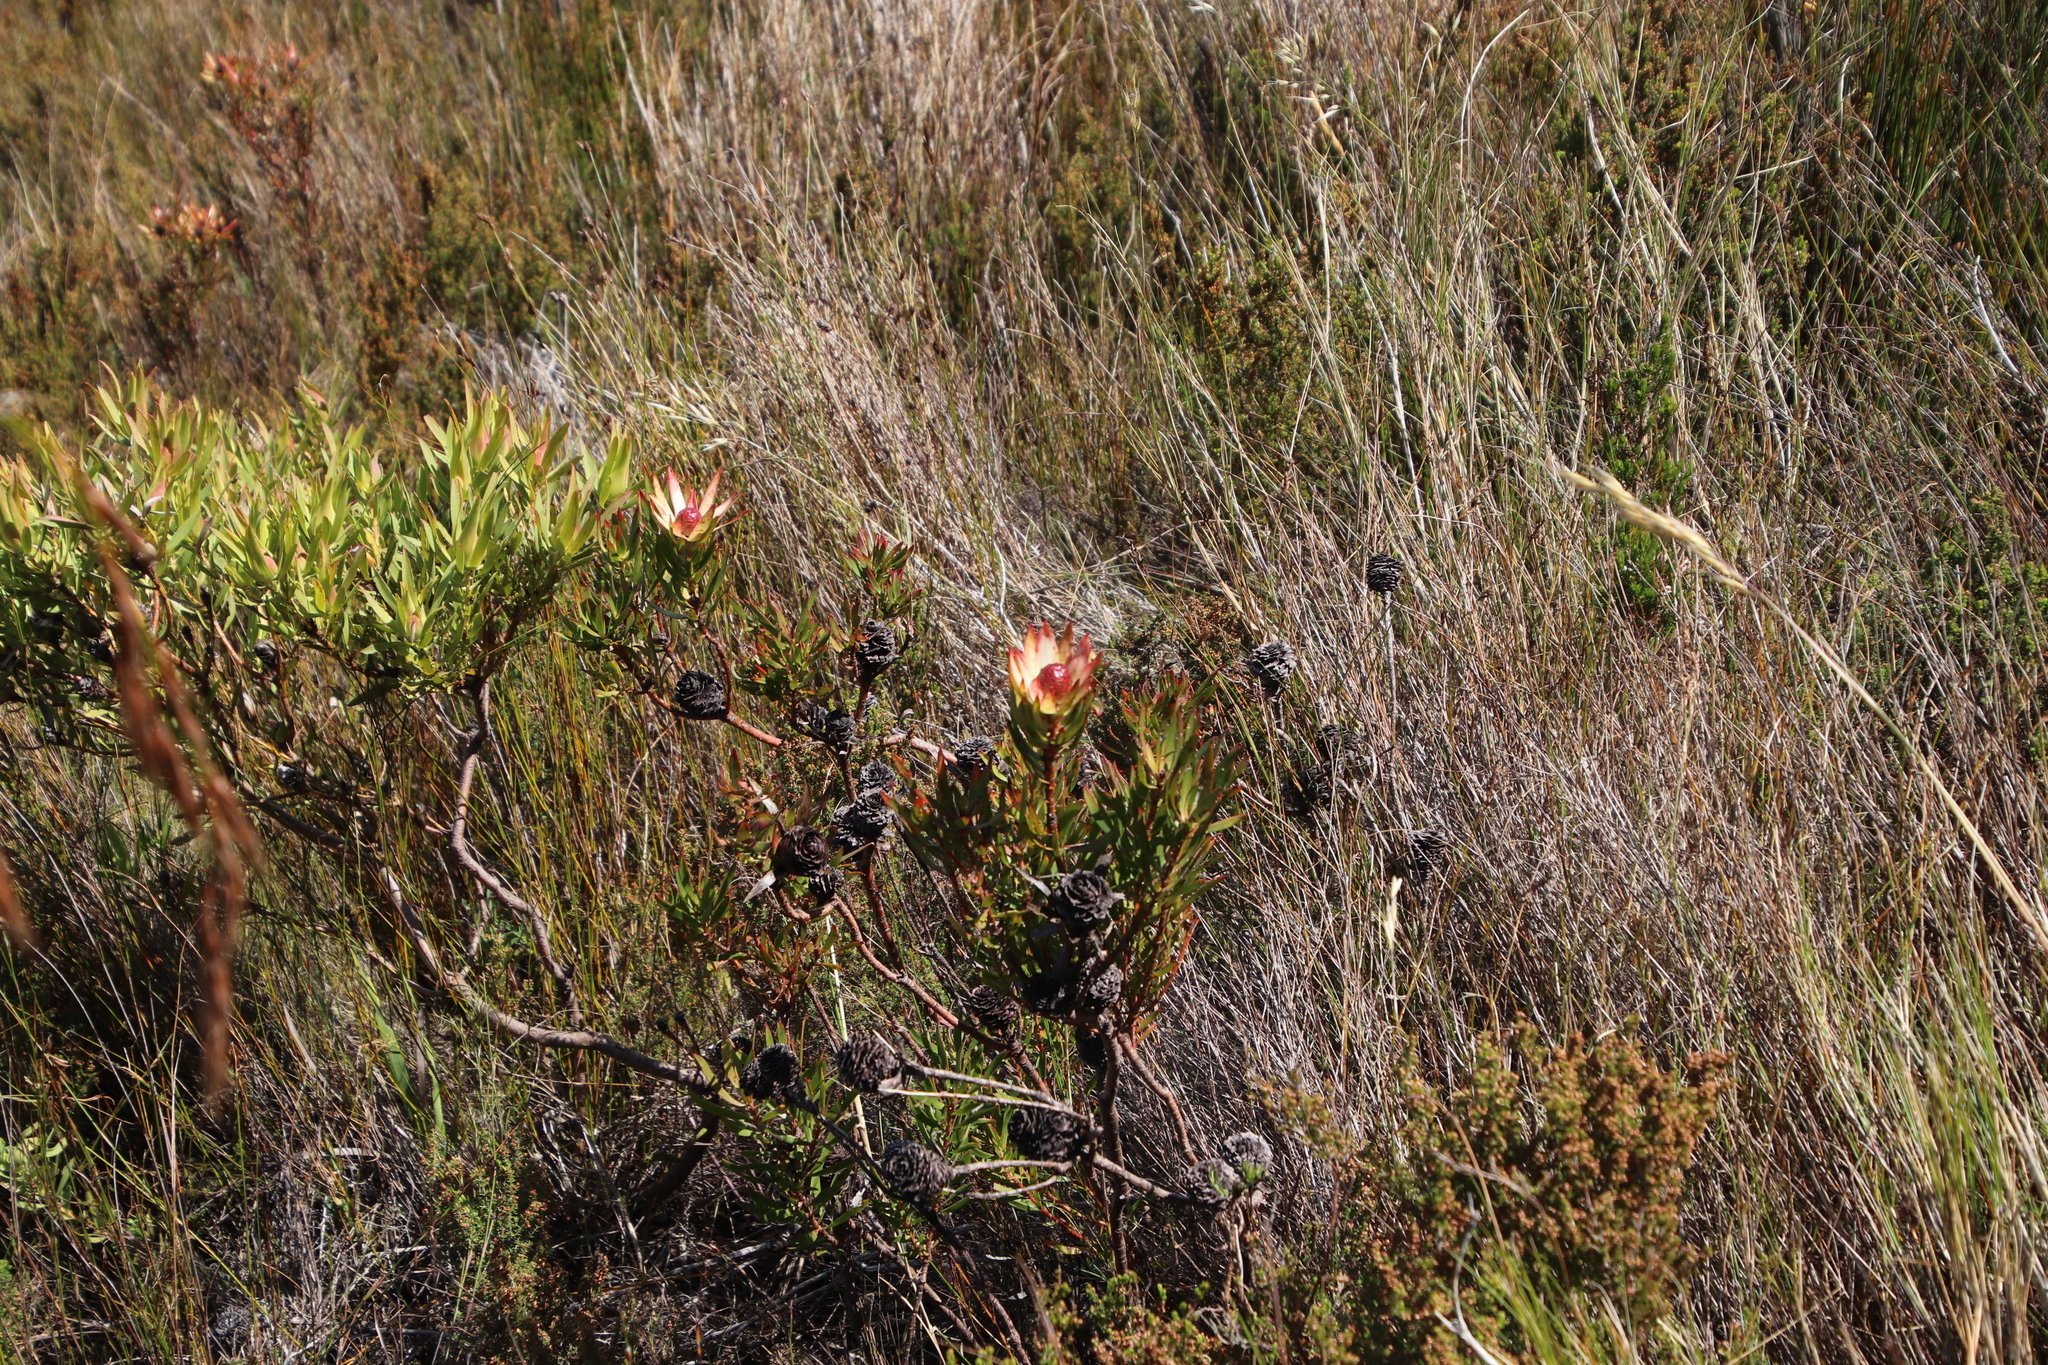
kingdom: Plantae
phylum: Tracheophyta
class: Magnoliopsida
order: Proteales
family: Proteaceae
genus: Leucadendron
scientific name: Leucadendron spissifolium
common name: Spear-leaf conebush
